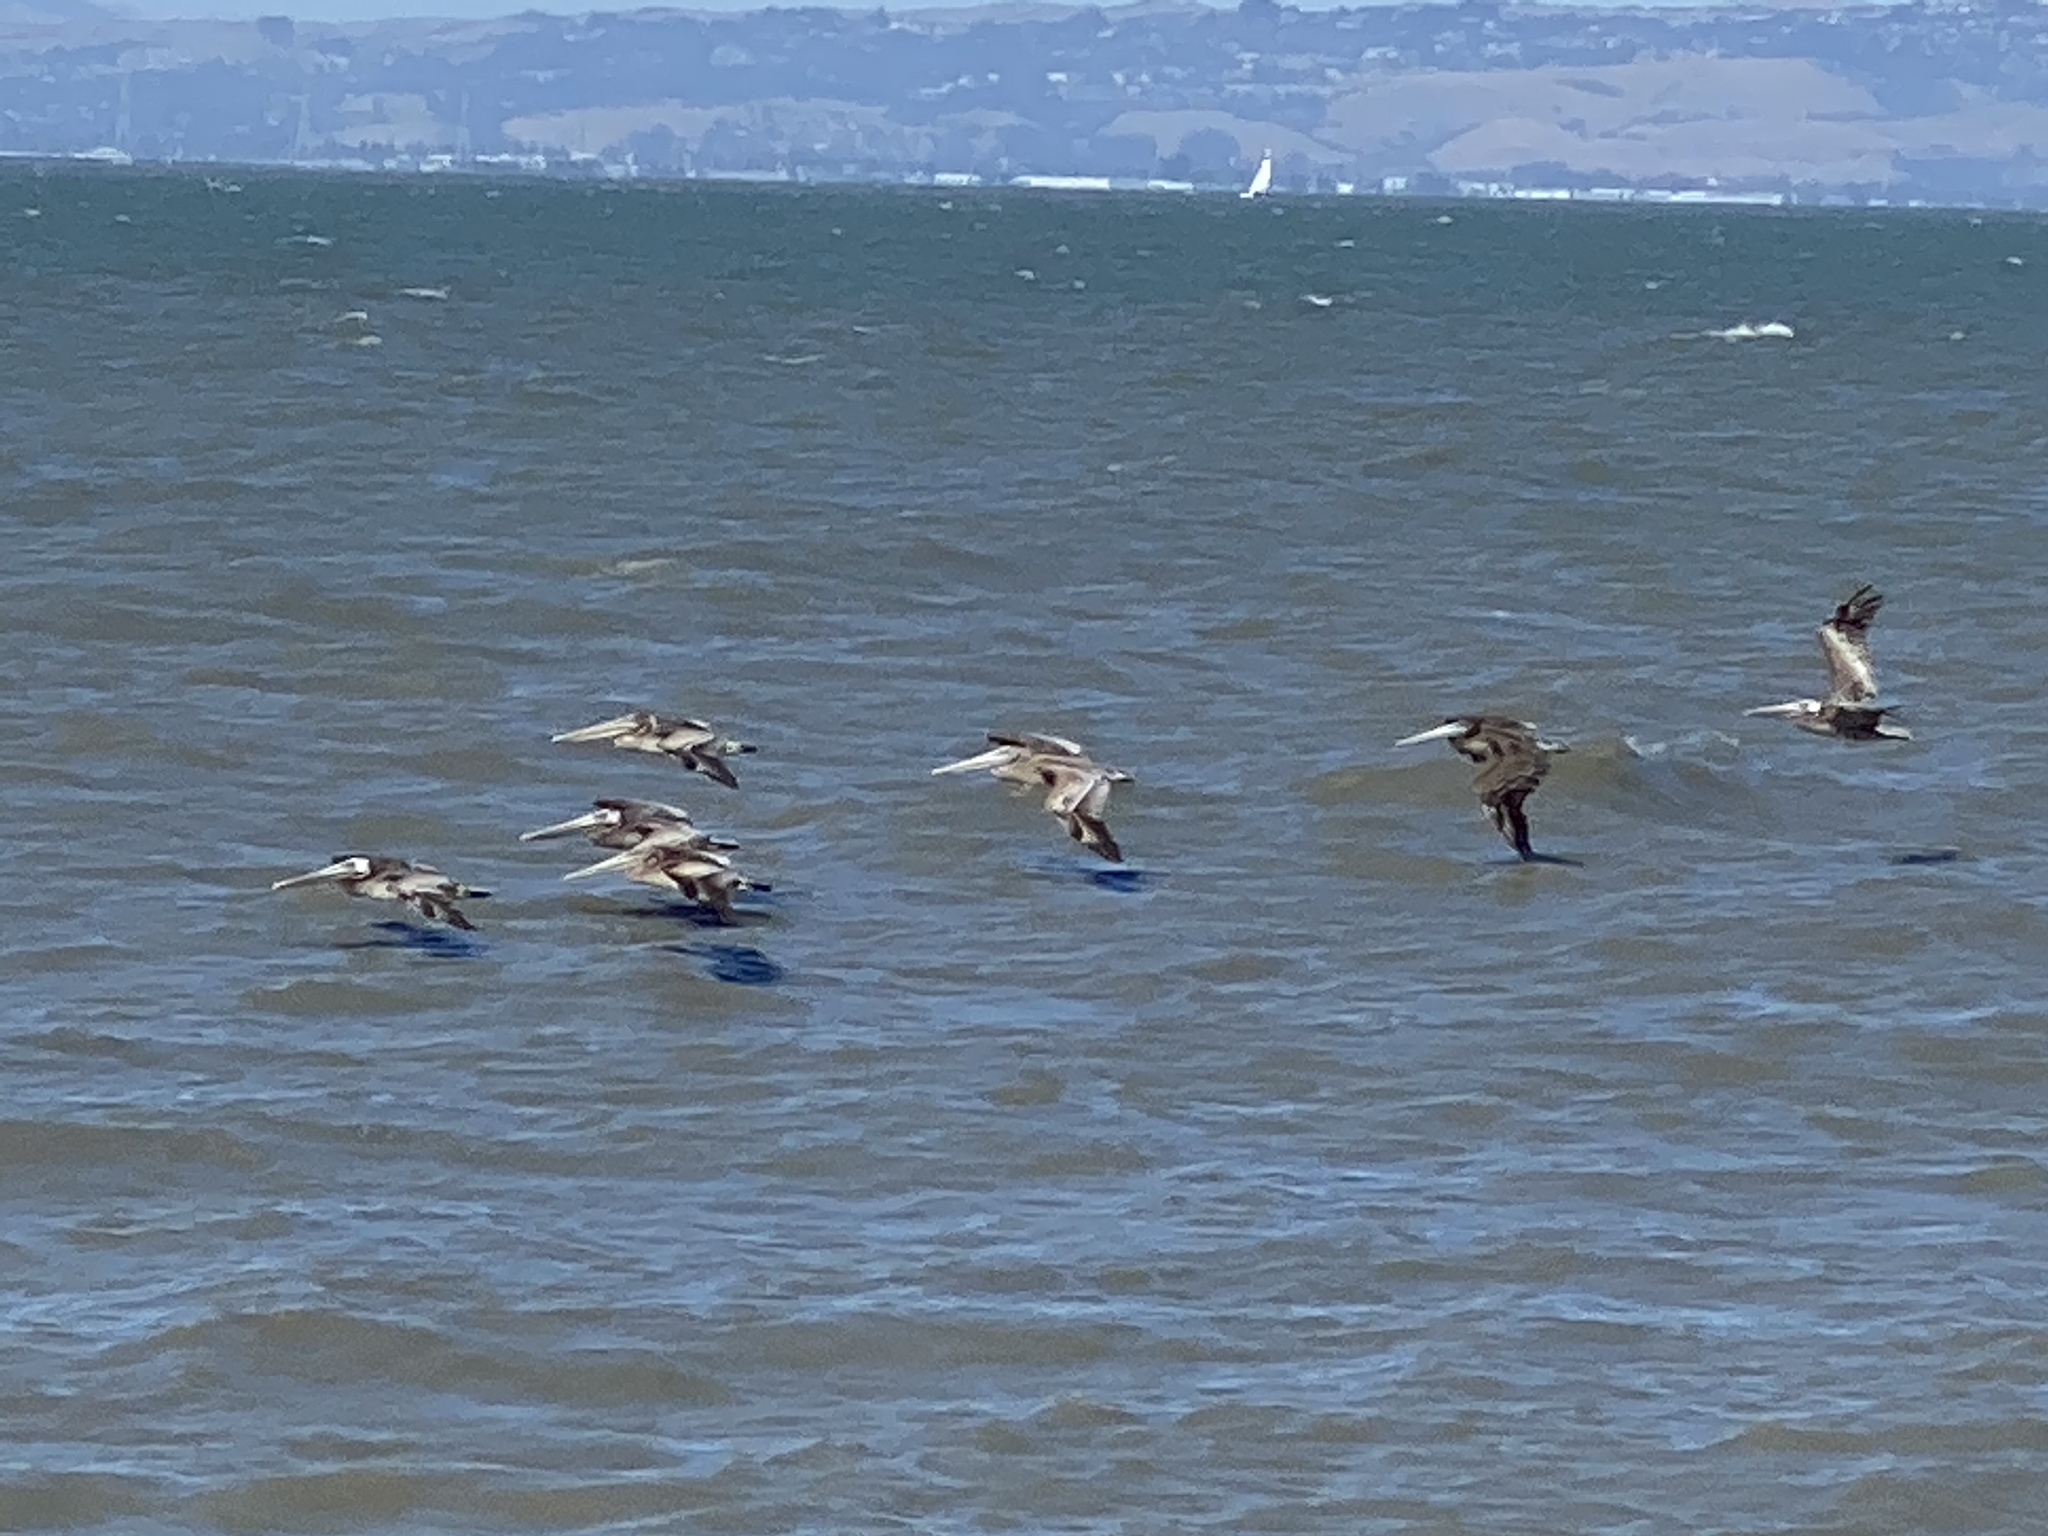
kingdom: Animalia
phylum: Chordata
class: Aves
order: Pelecaniformes
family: Pelecanidae
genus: Pelecanus
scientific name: Pelecanus occidentalis
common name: Brown pelican
